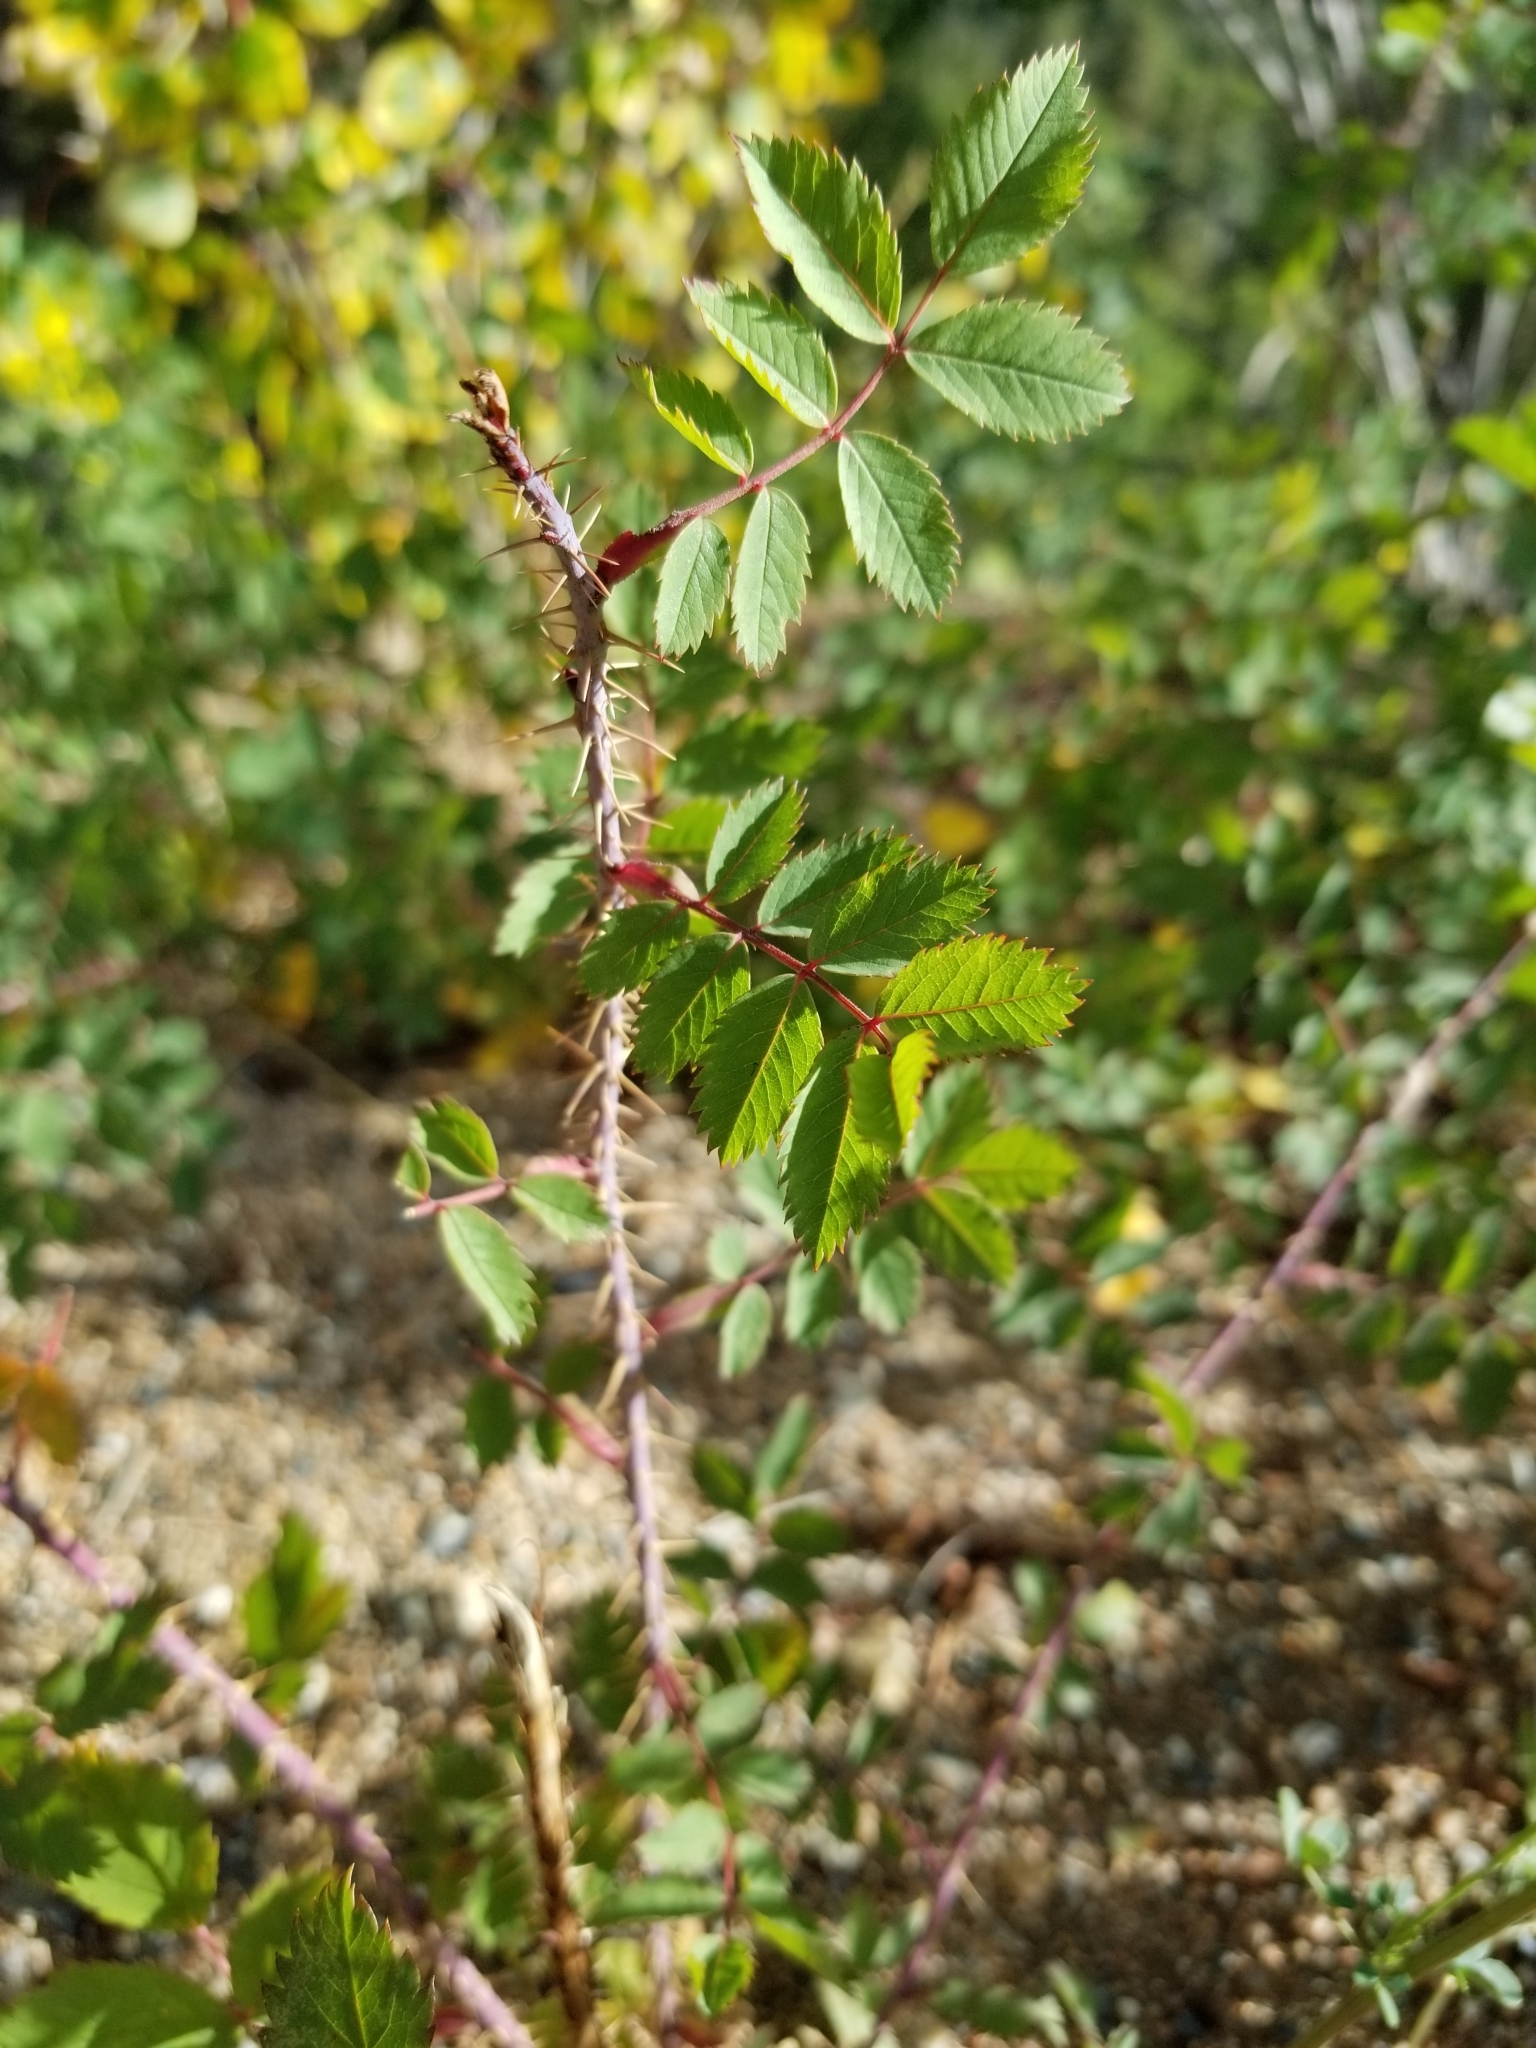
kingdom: Plantae
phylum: Tracheophyta
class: Magnoliopsida
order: Rosales
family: Rosaceae
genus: Rosa
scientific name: Rosa woodsii
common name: Woods's rose
